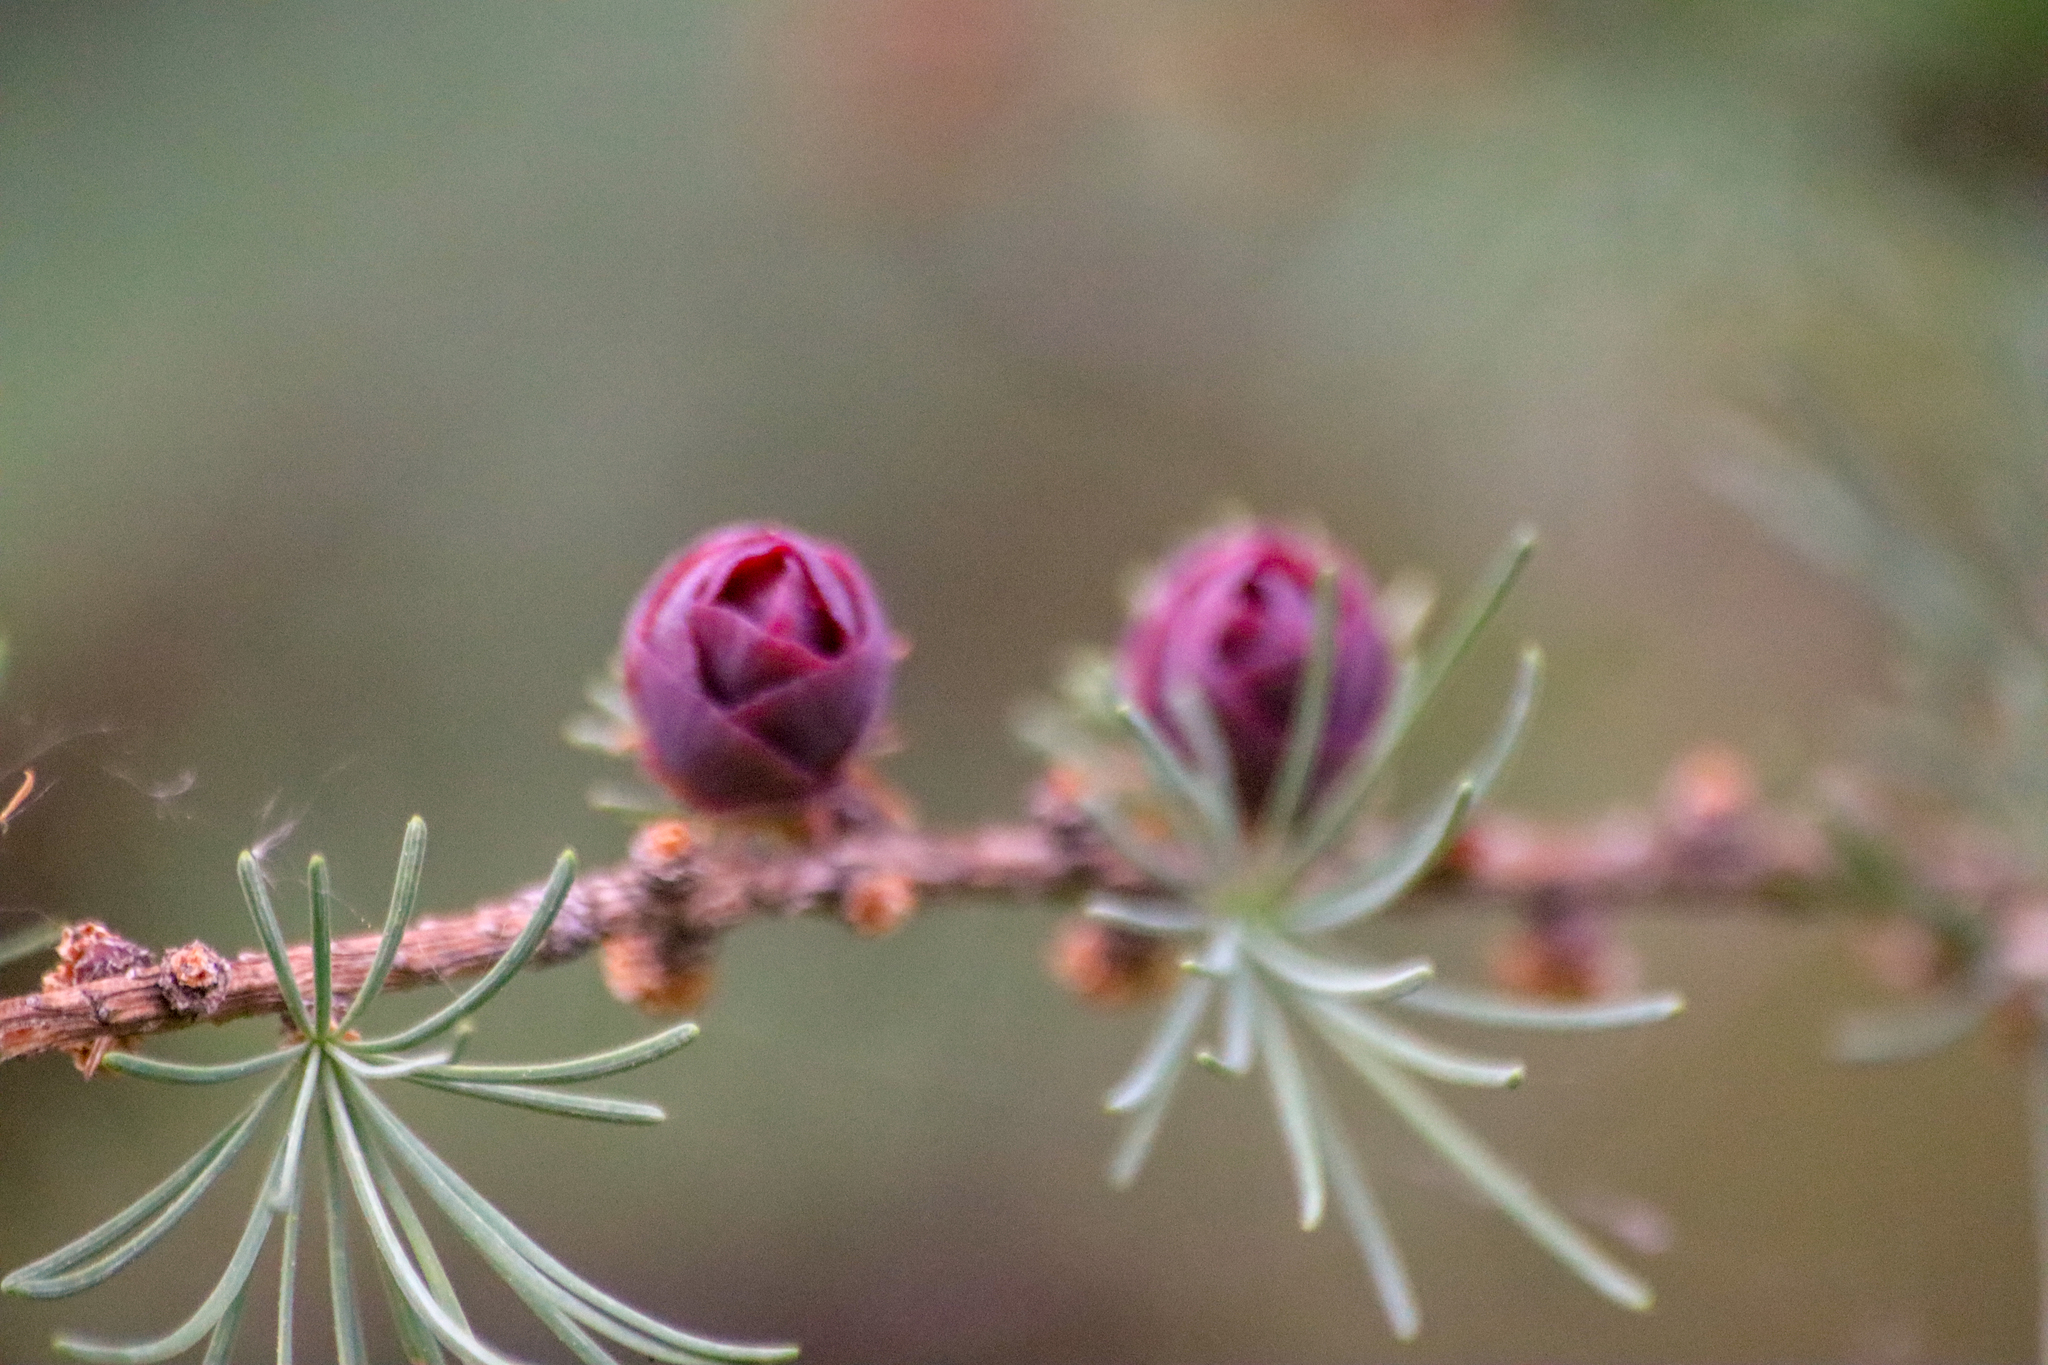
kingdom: Plantae
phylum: Tracheophyta
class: Pinopsida
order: Pinales
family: Pinaceae
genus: Larix
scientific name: Larix laricina
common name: American larch
